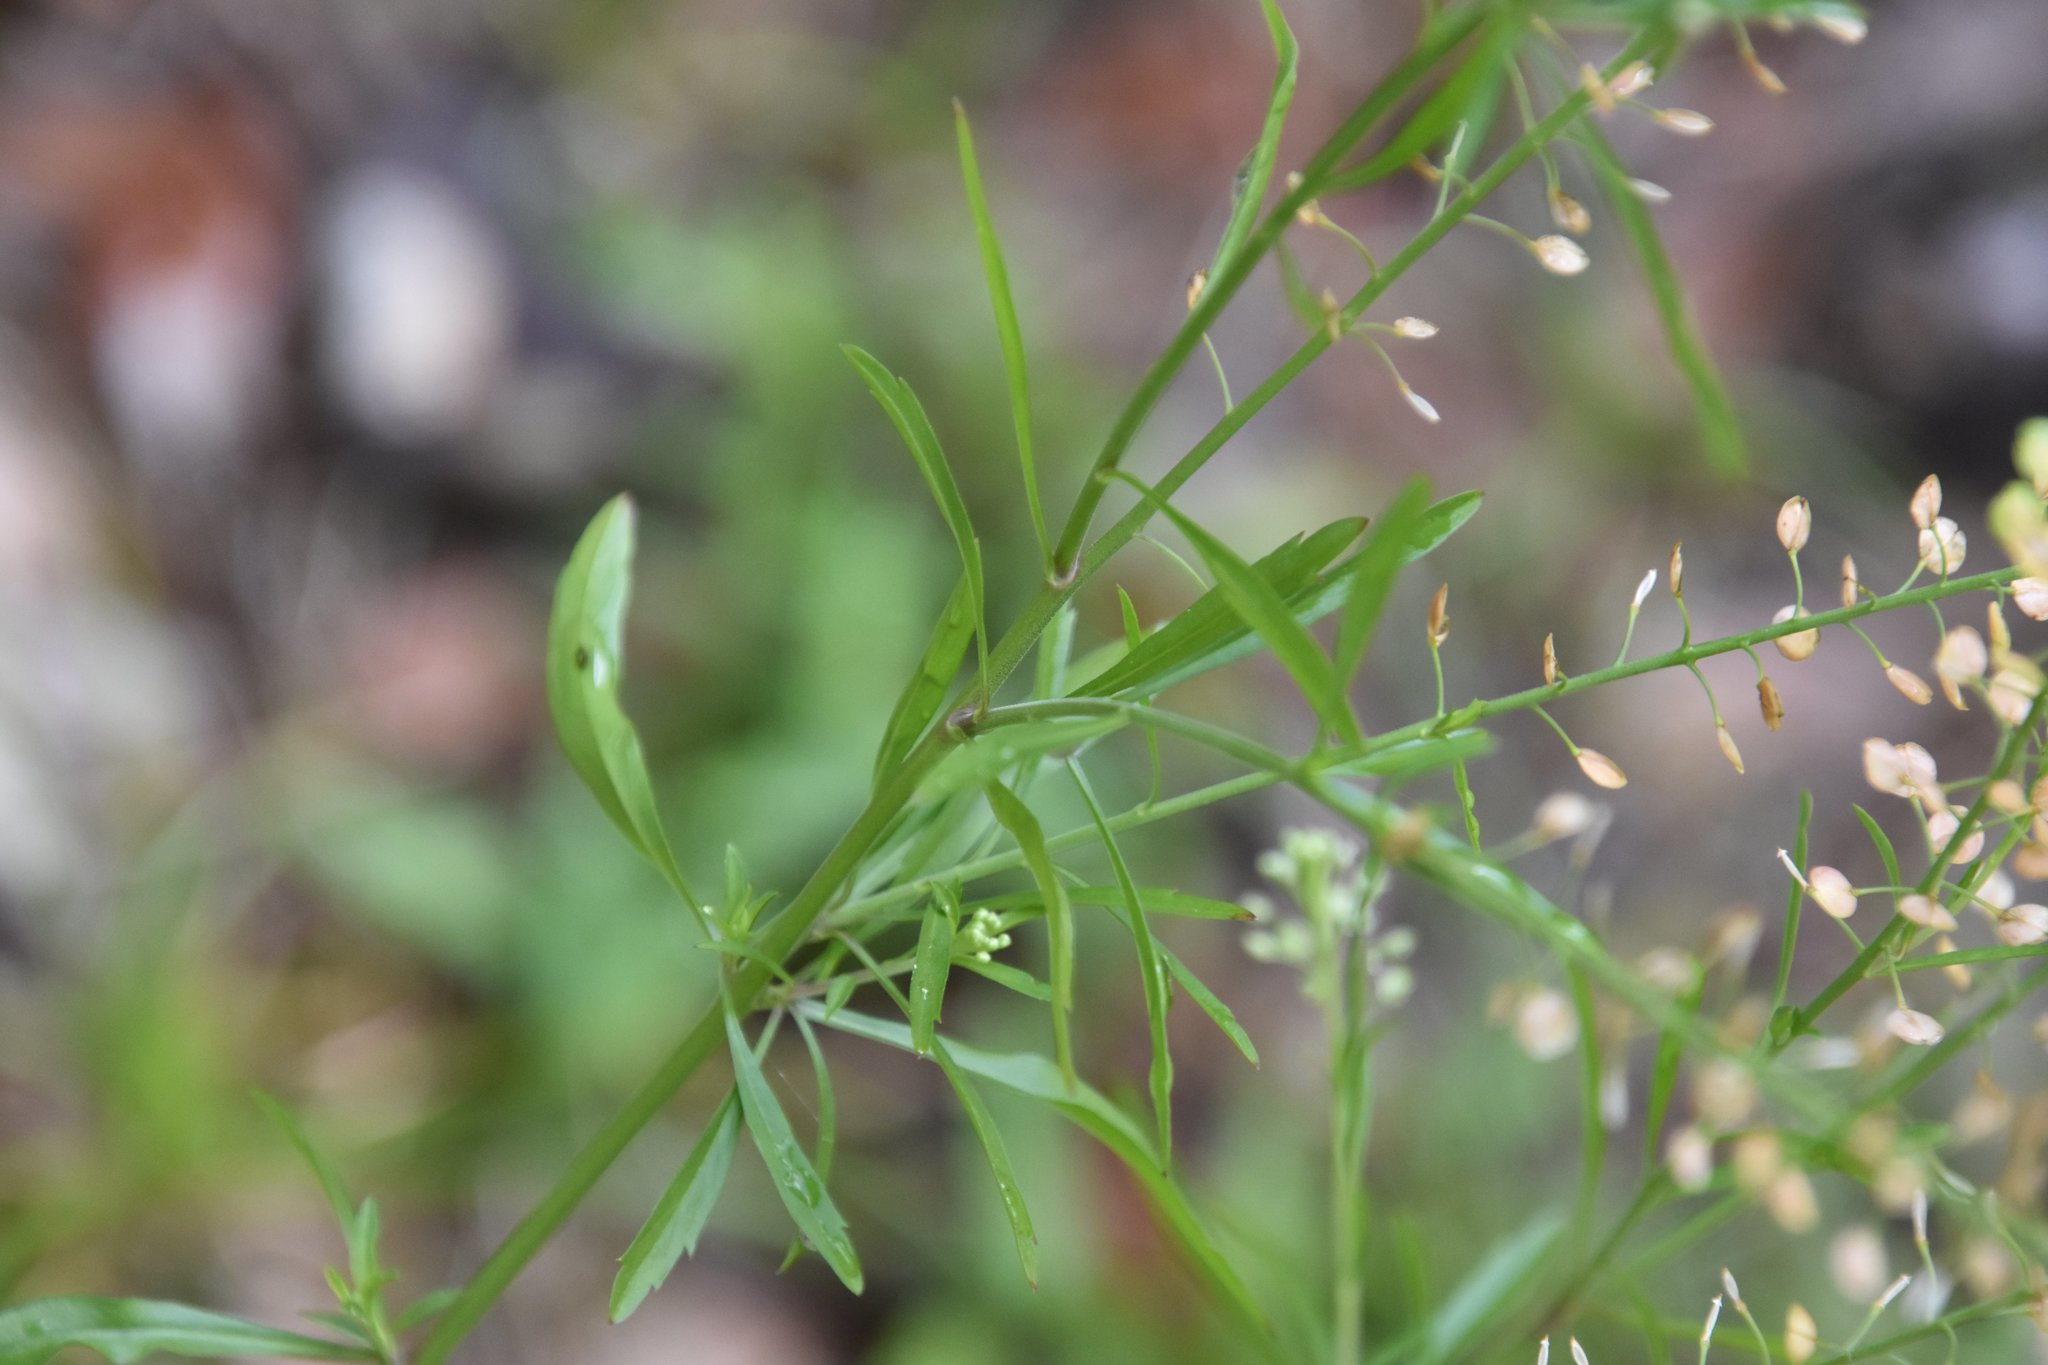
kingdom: Plantae
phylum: Tracheophyta
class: Magnoliopsida
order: Brassicales
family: Brassicaceae
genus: Lepidium
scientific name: Lepidium virginicum
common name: Least pepperwort
